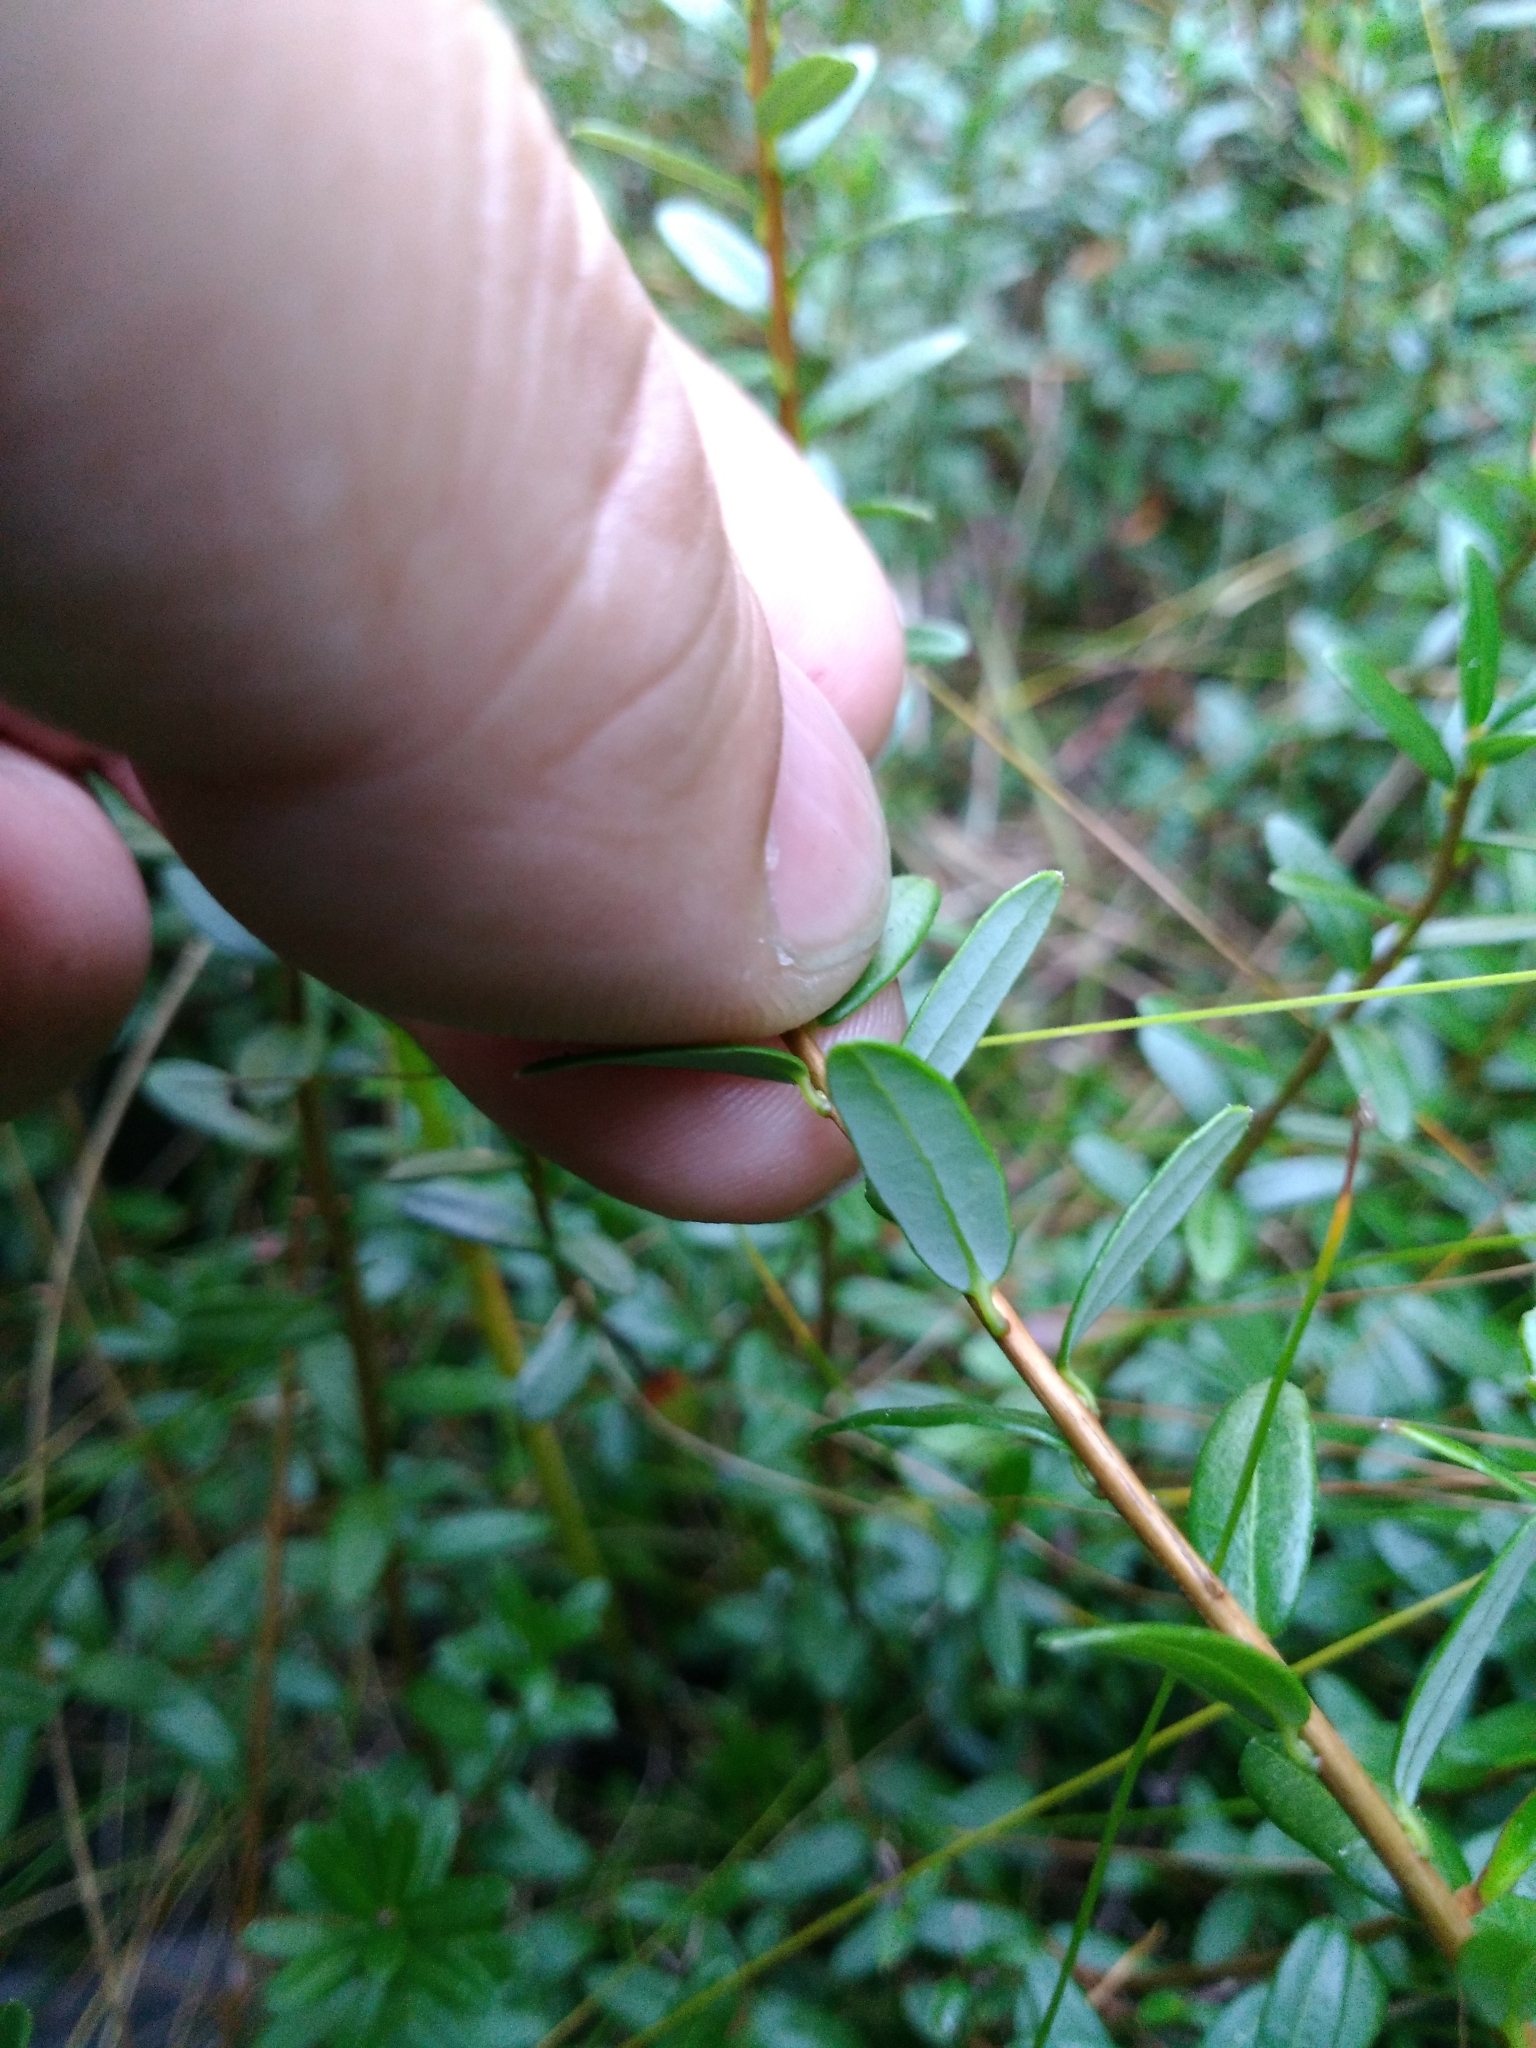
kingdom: Plantae
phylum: Tracheophyta
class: Magnoliopsida
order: Ericales
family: Ericaceae
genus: Vaccinium
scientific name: Vaccinium macrocarpon
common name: American cranberry
